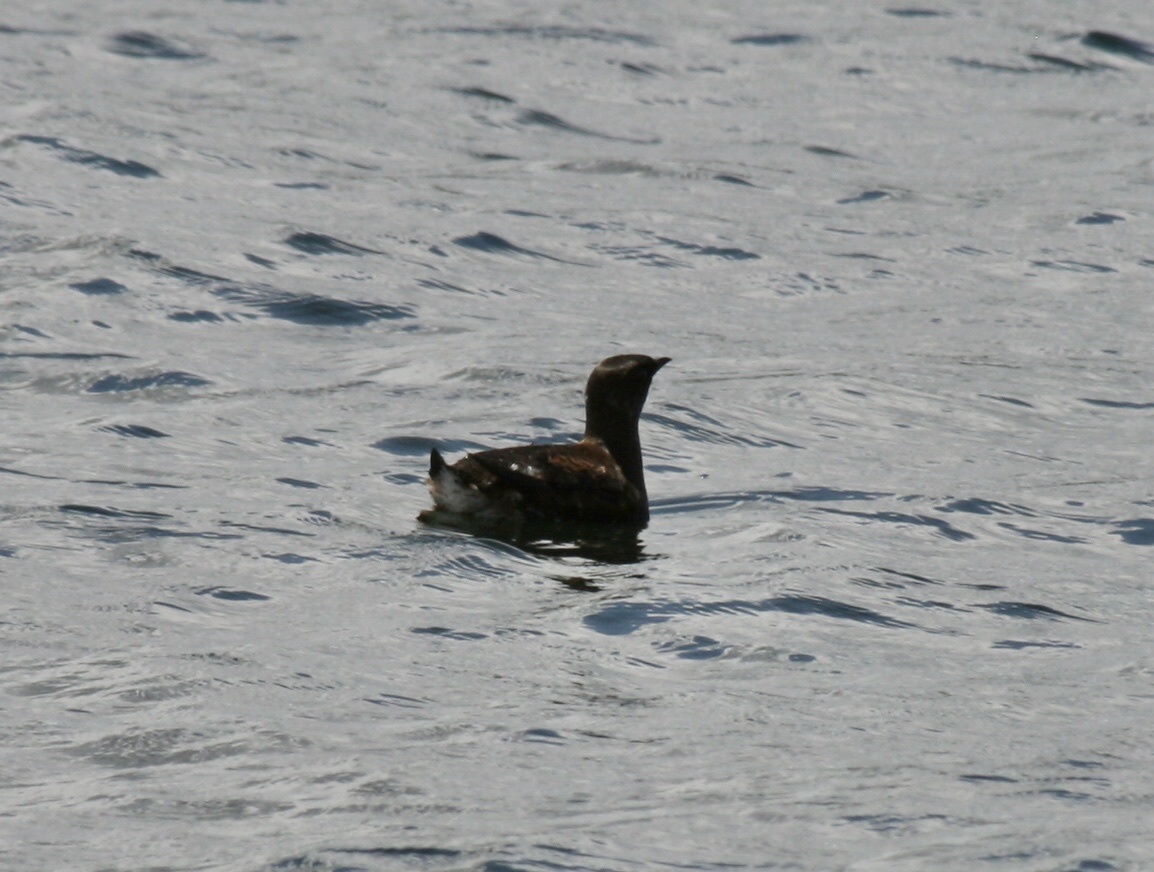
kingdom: Animalia
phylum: Chordata
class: Aves
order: Charadriiformes
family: Alcidae
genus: Brachyramphus
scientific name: Brachyramphus marmoratus
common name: Marbled murrelet
